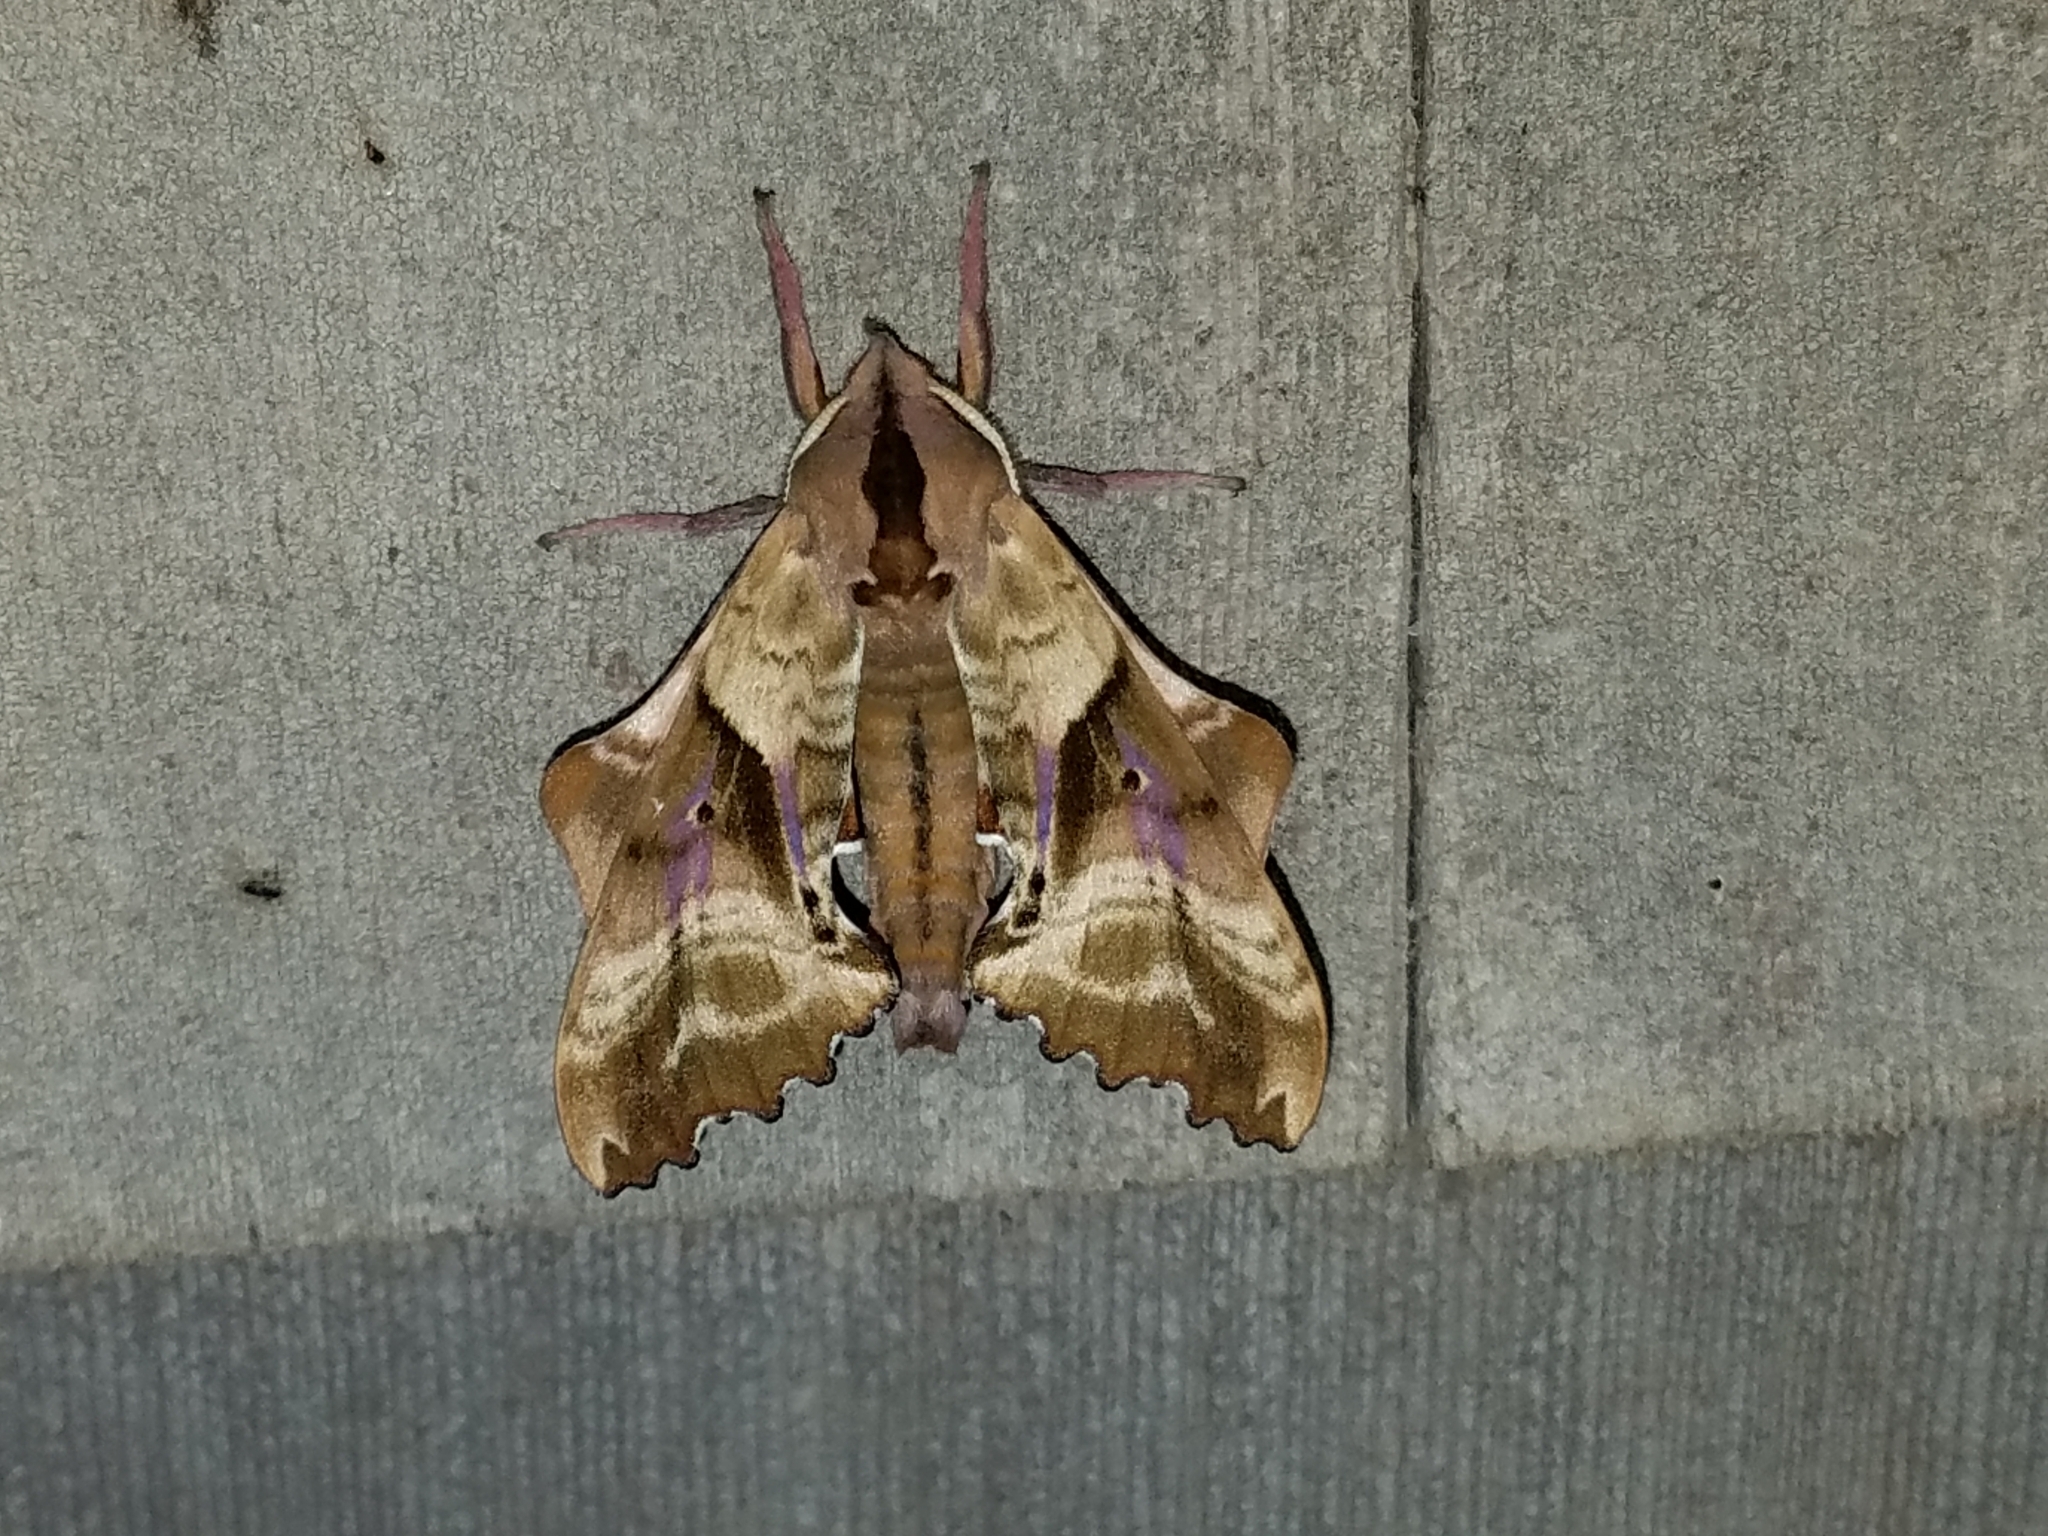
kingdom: Animalia
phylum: Arthropoda
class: Insecta
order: Lepidoptera
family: Sphingidae
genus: Paonias
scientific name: Paonias excaecata
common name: Blind-eyed sphinx
